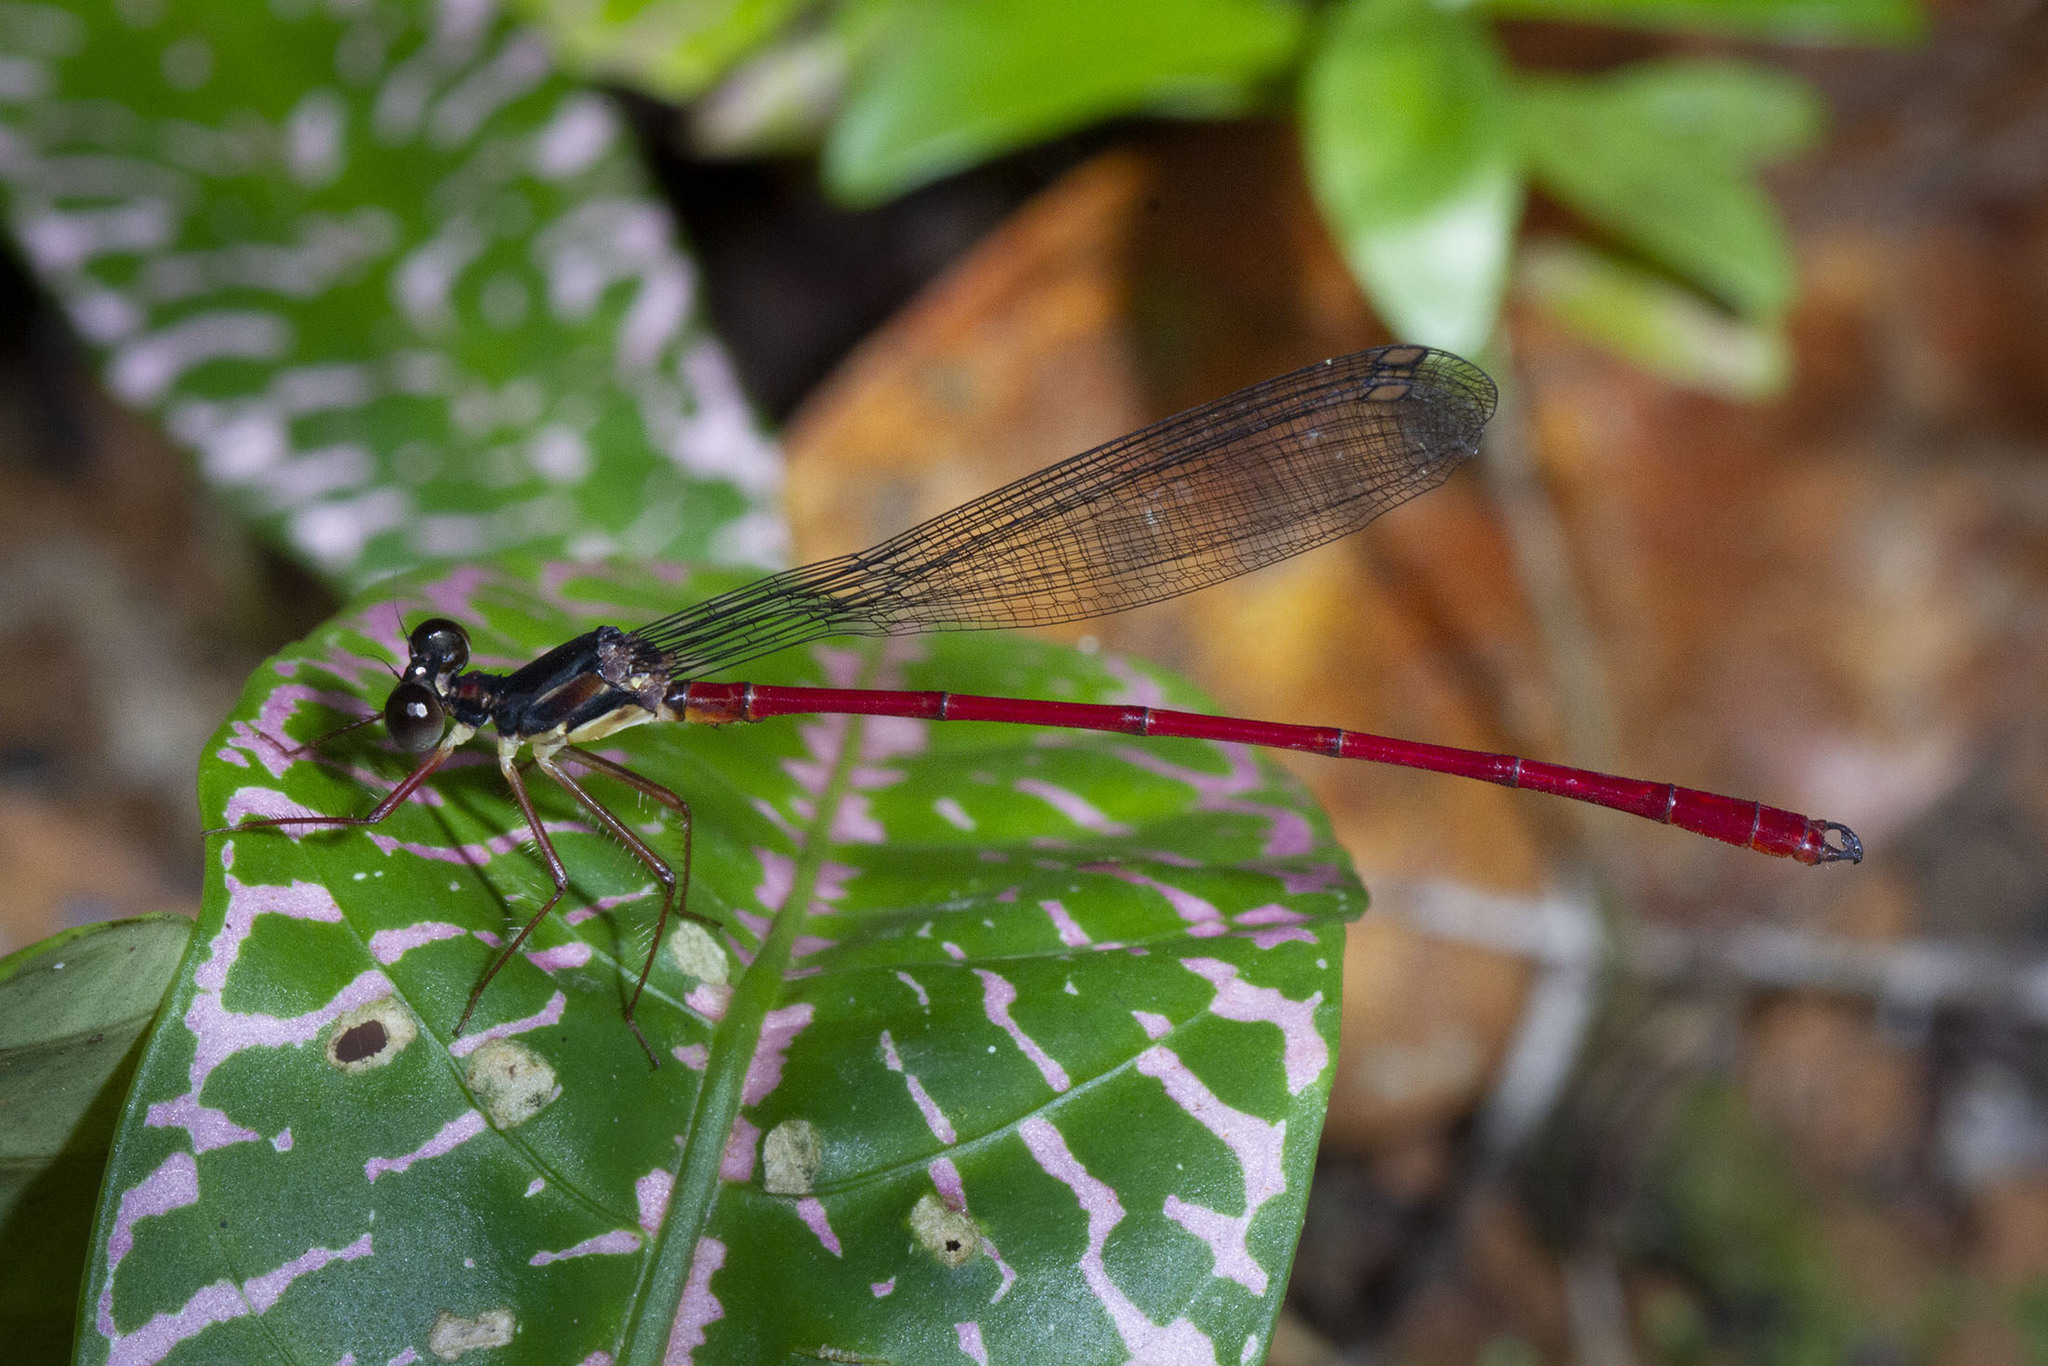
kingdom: Animalia
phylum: Arthropoda
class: Insecta
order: Odonata
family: Megapodagrionidae
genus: Tatocnemis
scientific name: Tatocnemis malgassica
